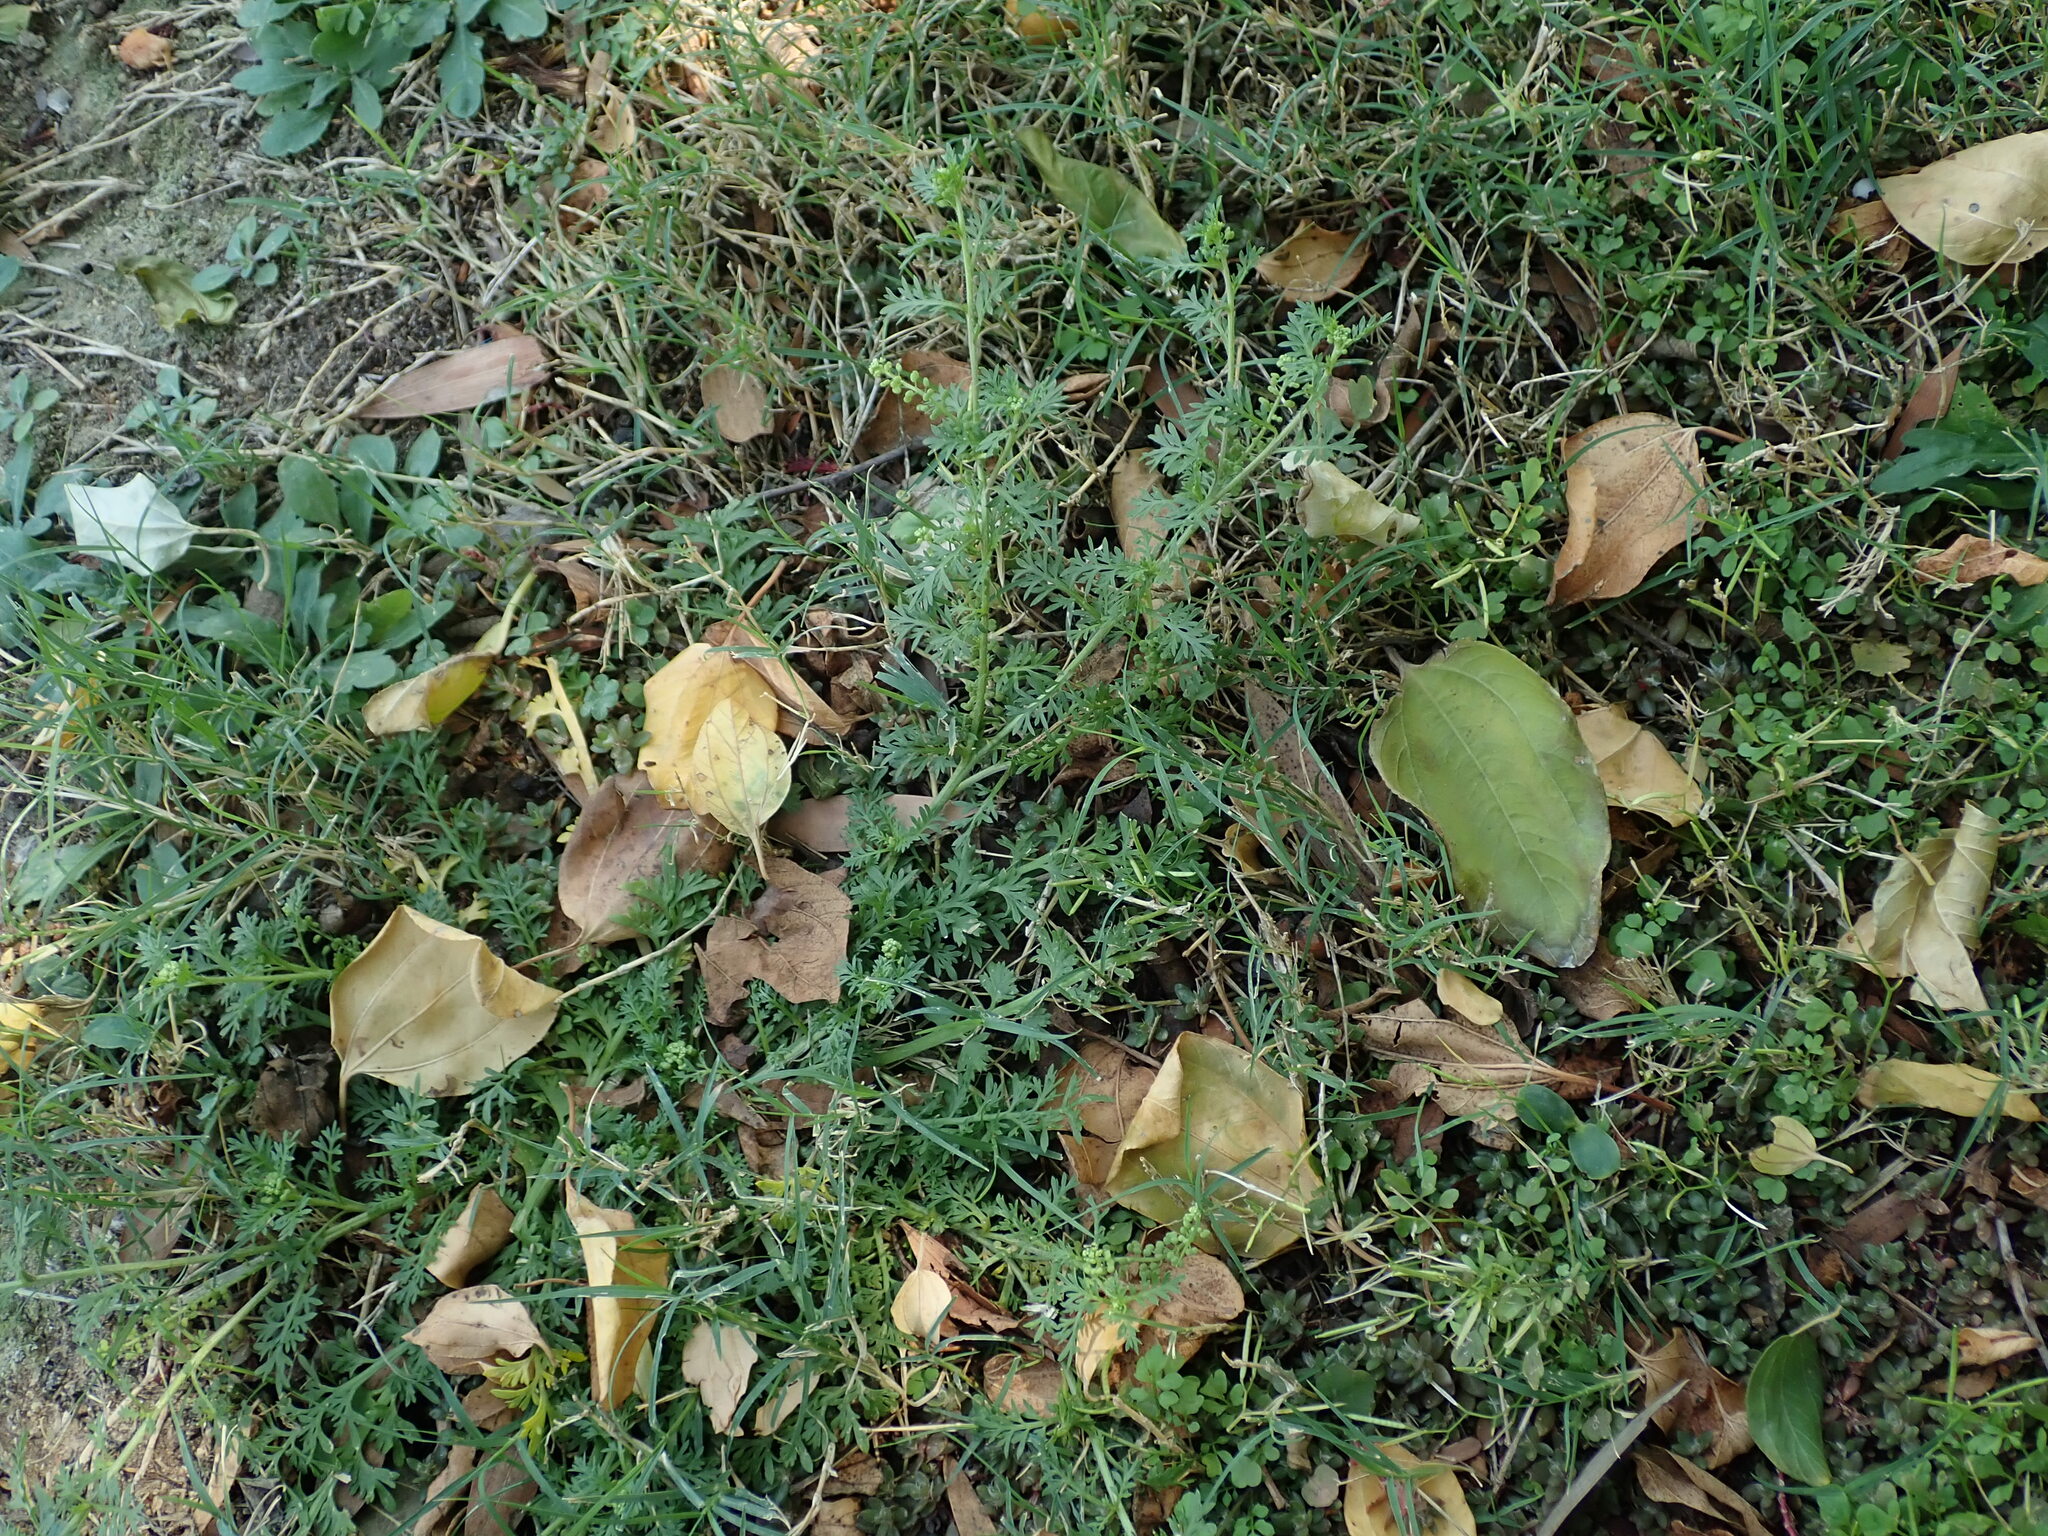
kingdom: Plantae
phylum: Tracheophyta
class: Magnoliopsida
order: Brassicales
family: Brassicaceae
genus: Lepidium
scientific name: Lepidium didymum
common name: Lesser swinecress
